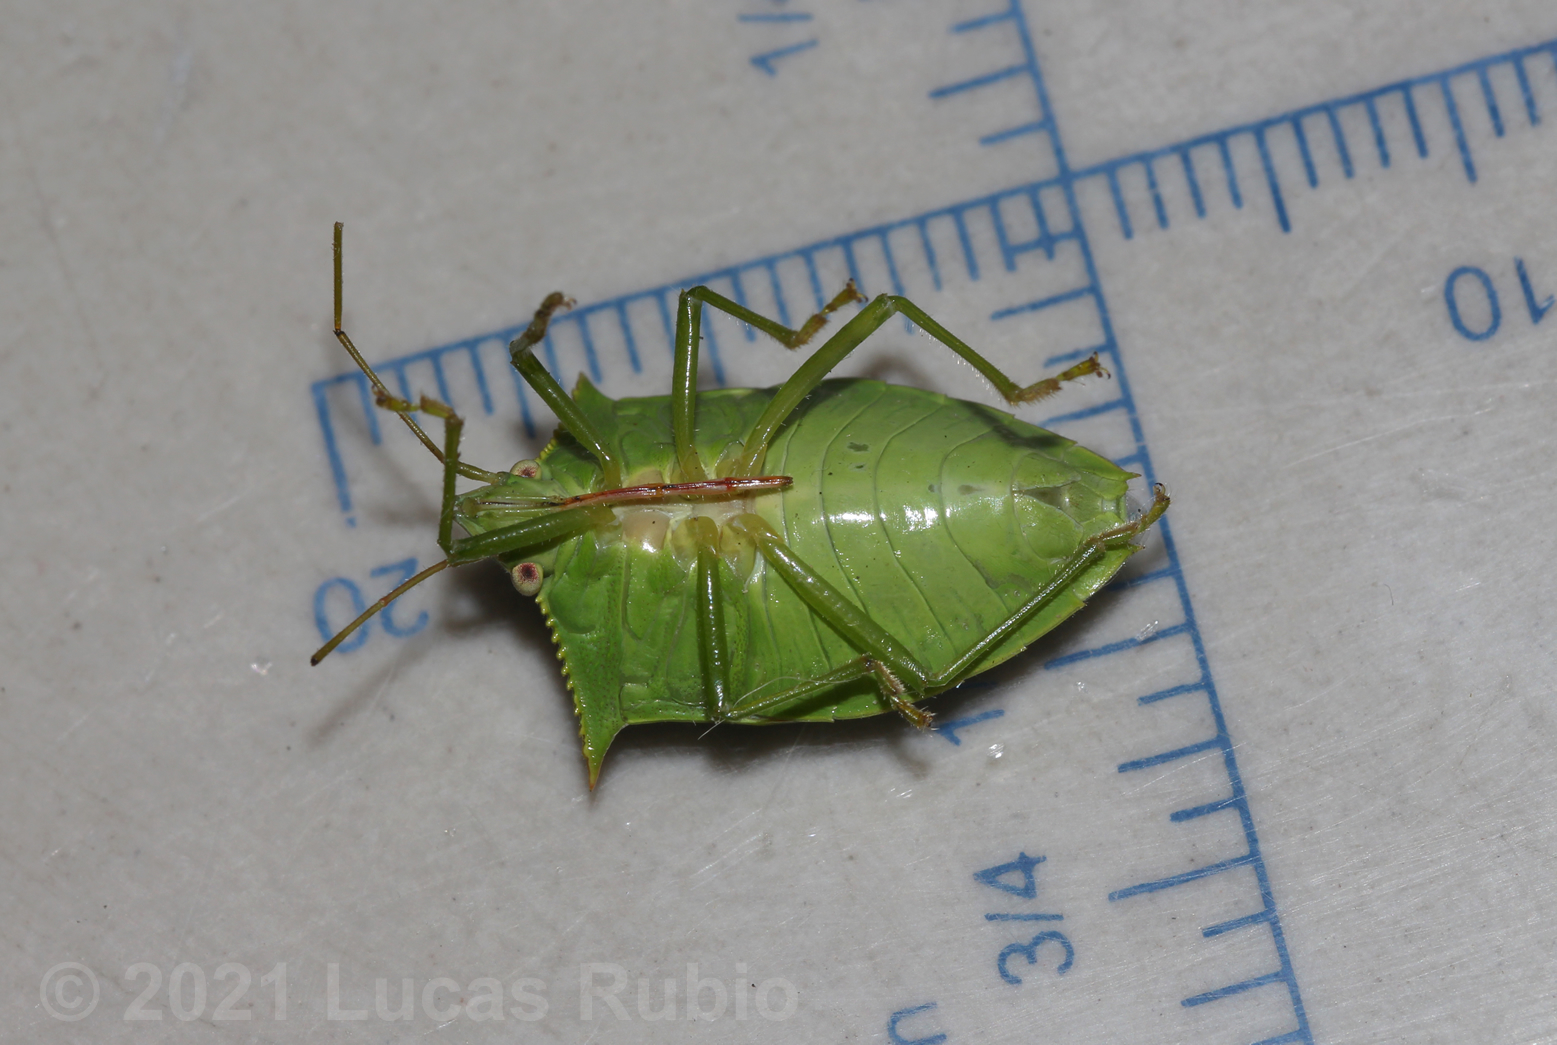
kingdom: Animalia
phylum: Arthropoda
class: Insecta
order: Hemiptera
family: Pentatomidae
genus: Loxa
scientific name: Loxa deducta
